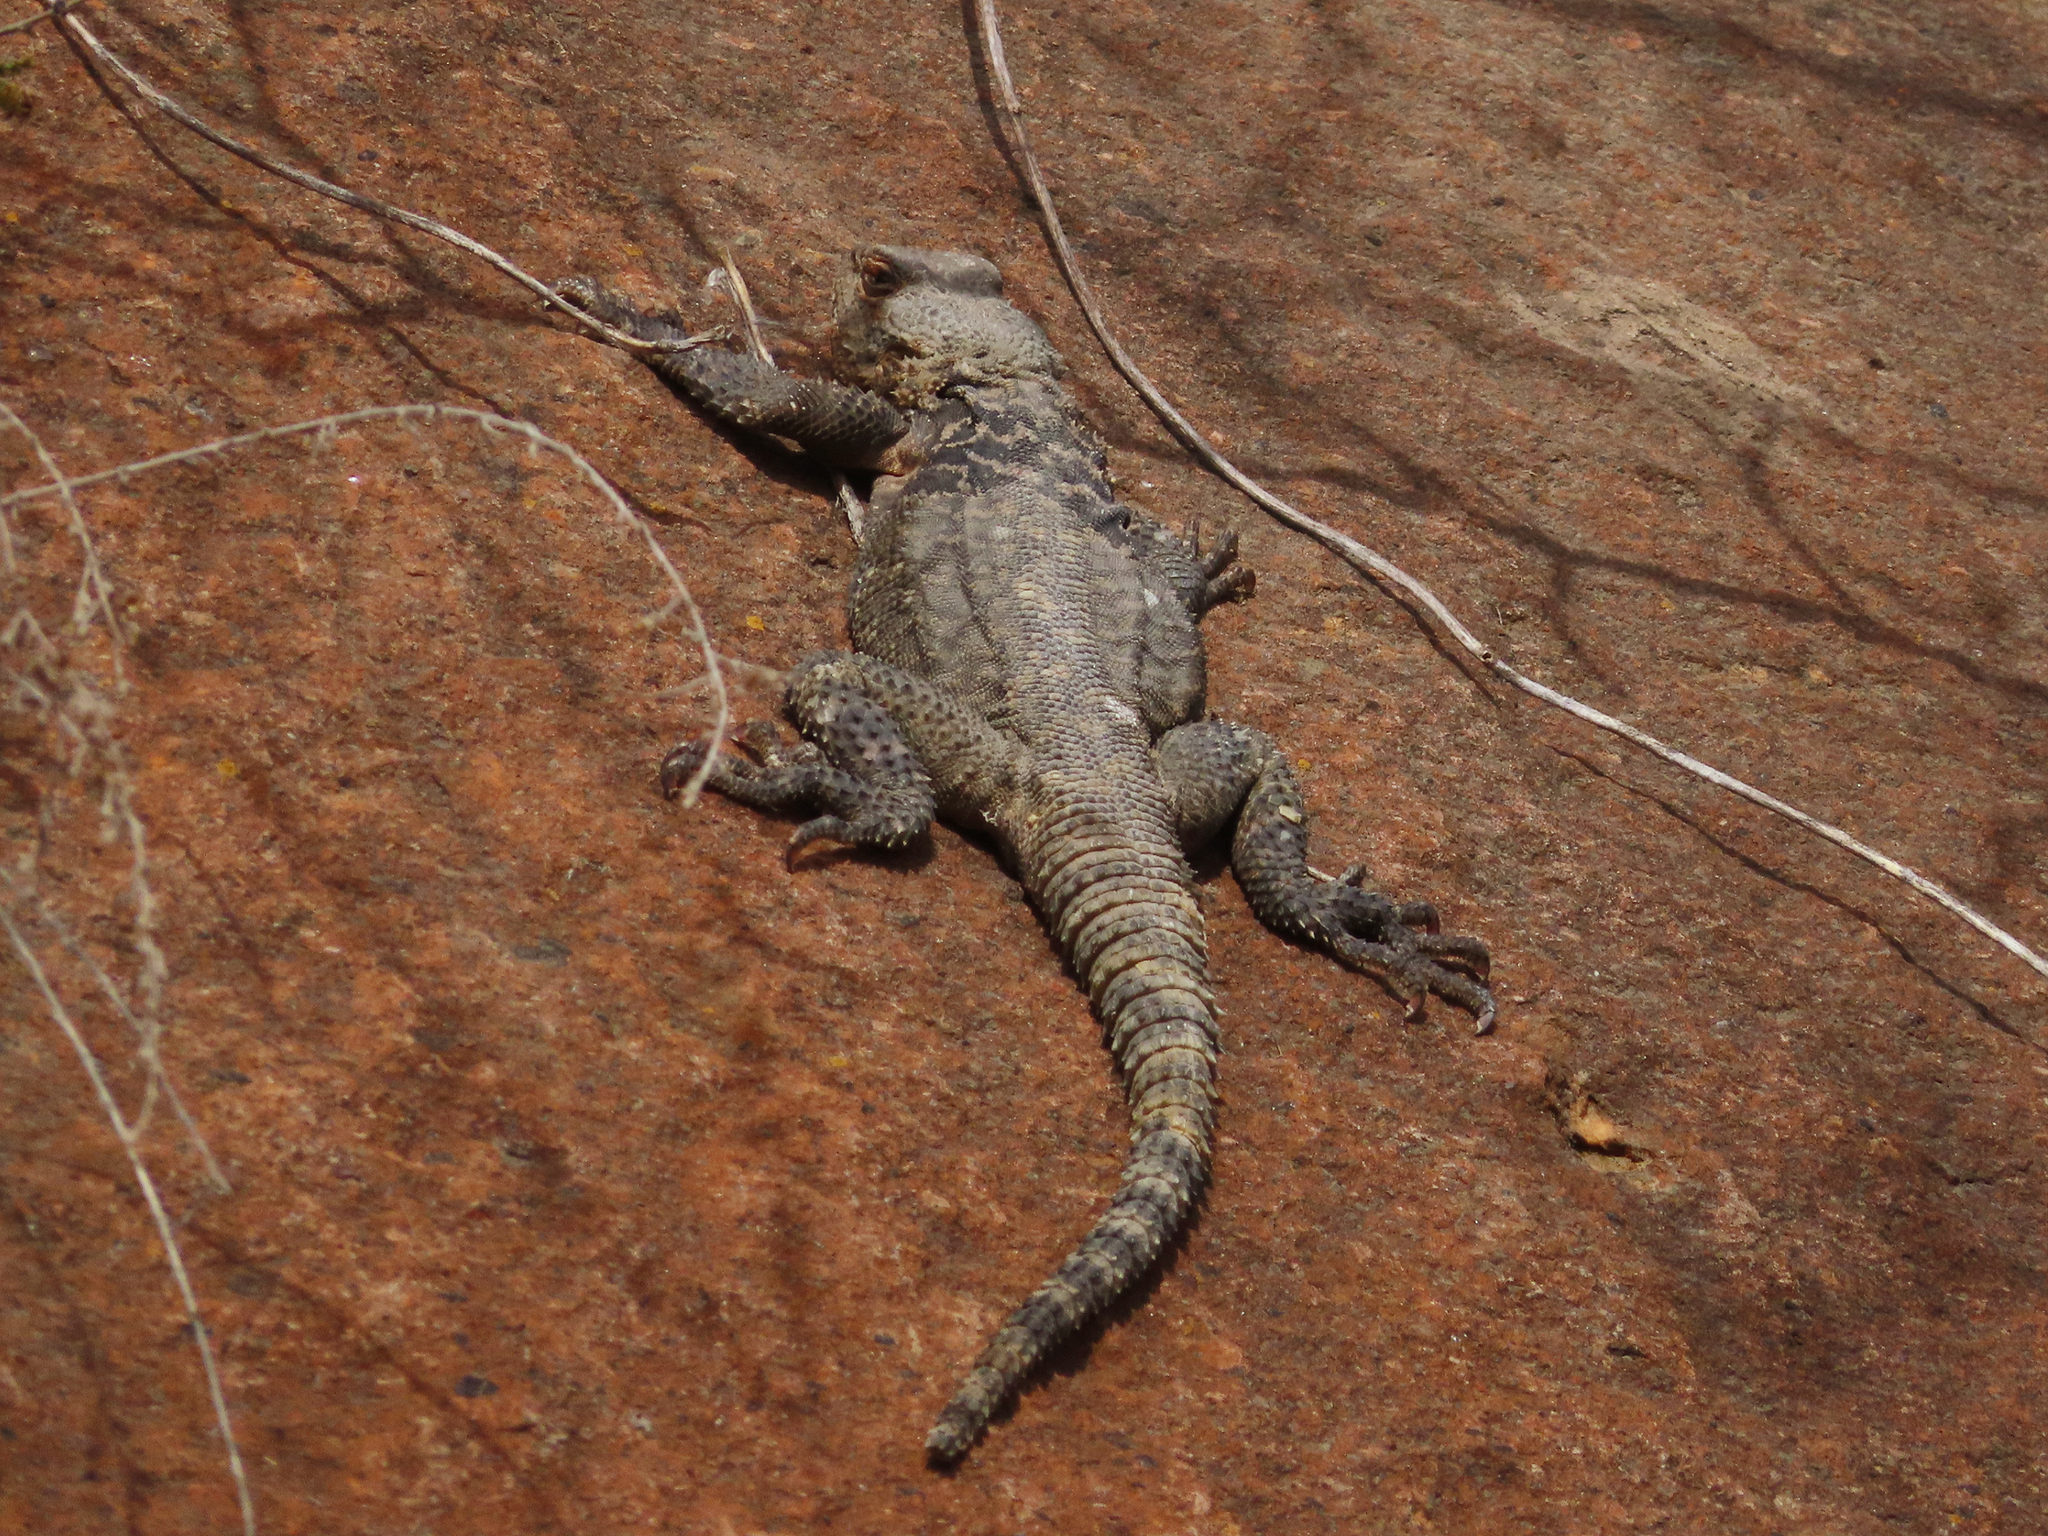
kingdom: Animalia
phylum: Chordata
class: Squamata
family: Agamidae
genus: Paralaudakia
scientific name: Paralaudakia caucasia
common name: Caucasian agama
